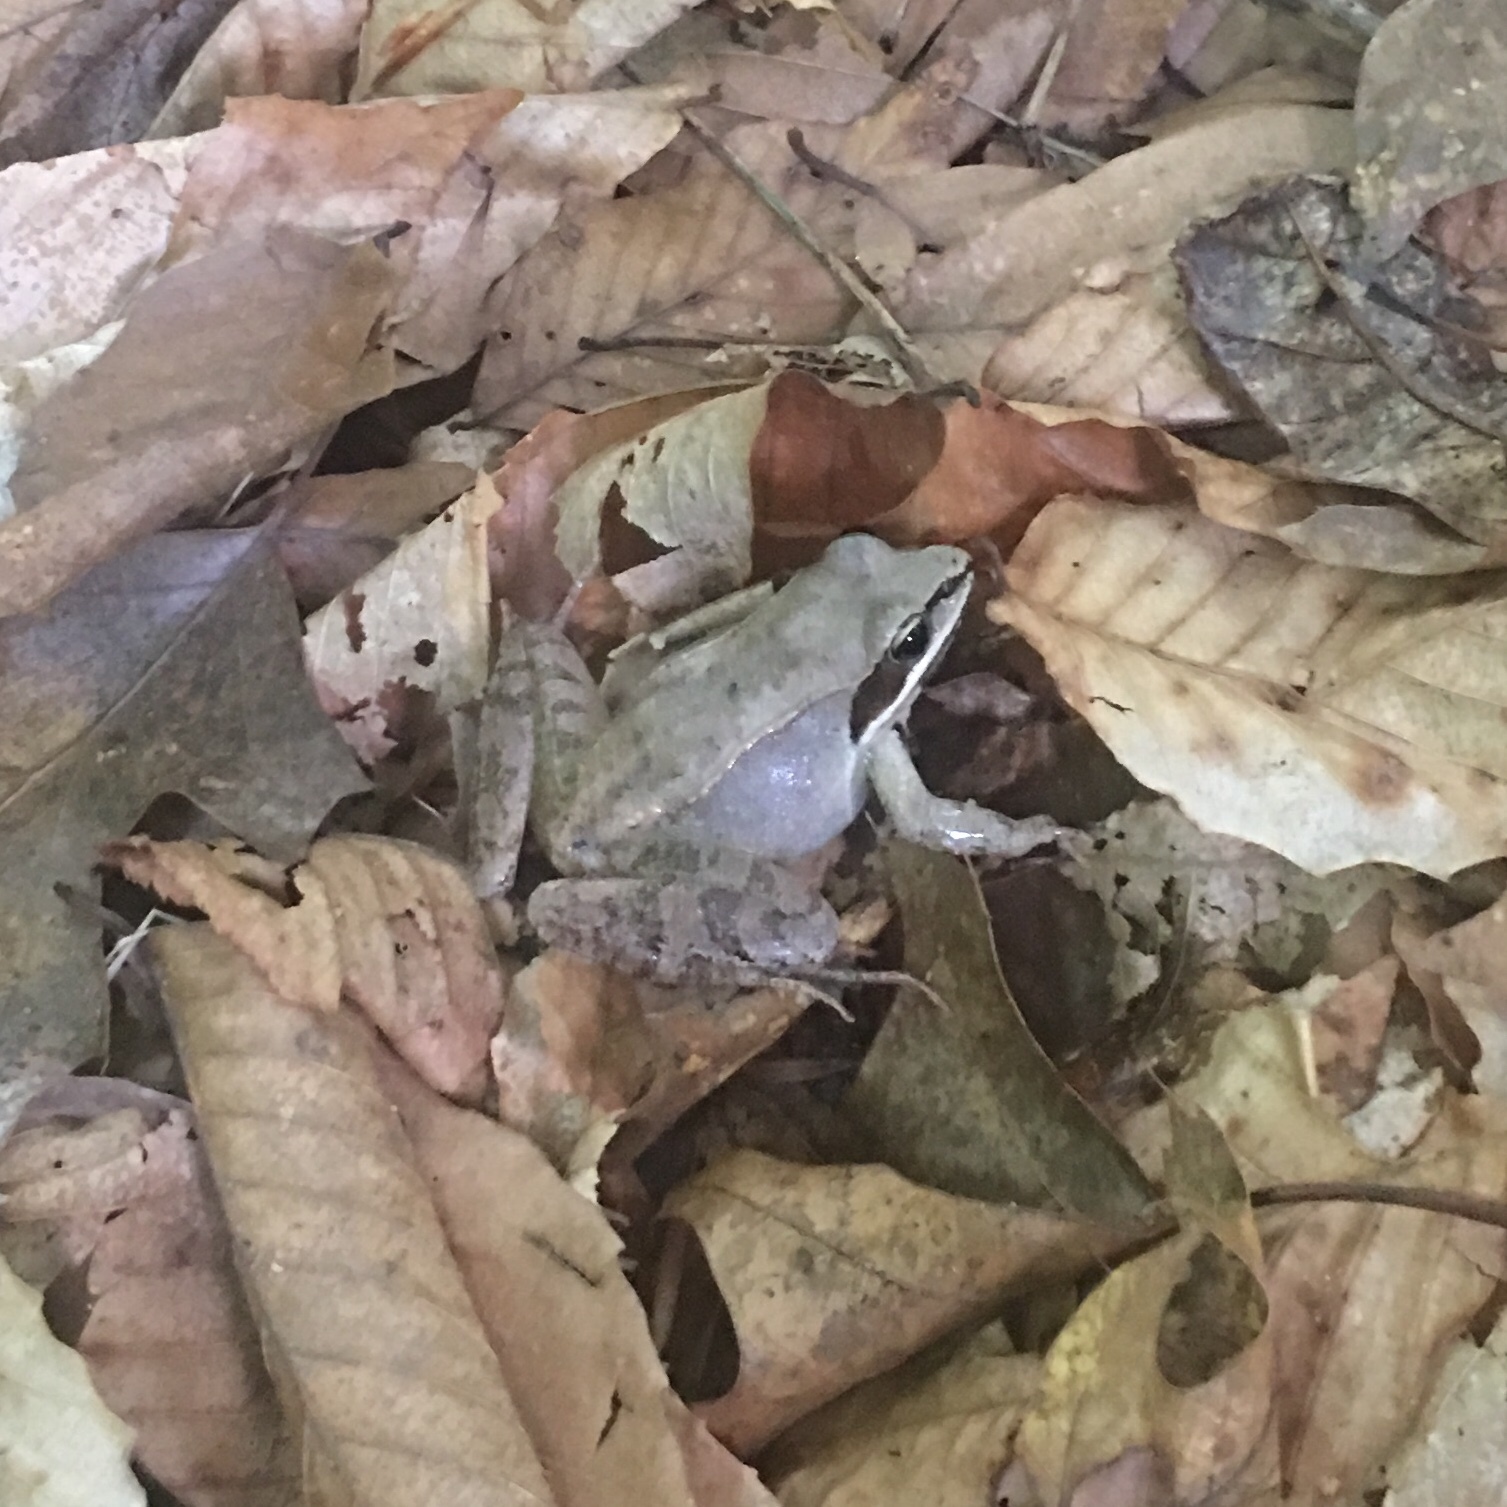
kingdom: Animalia
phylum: Chordata
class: Amphibia
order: Anura
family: Ranidae
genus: Lithobates
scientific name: Lithobates sylvaticus
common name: Wood frog
